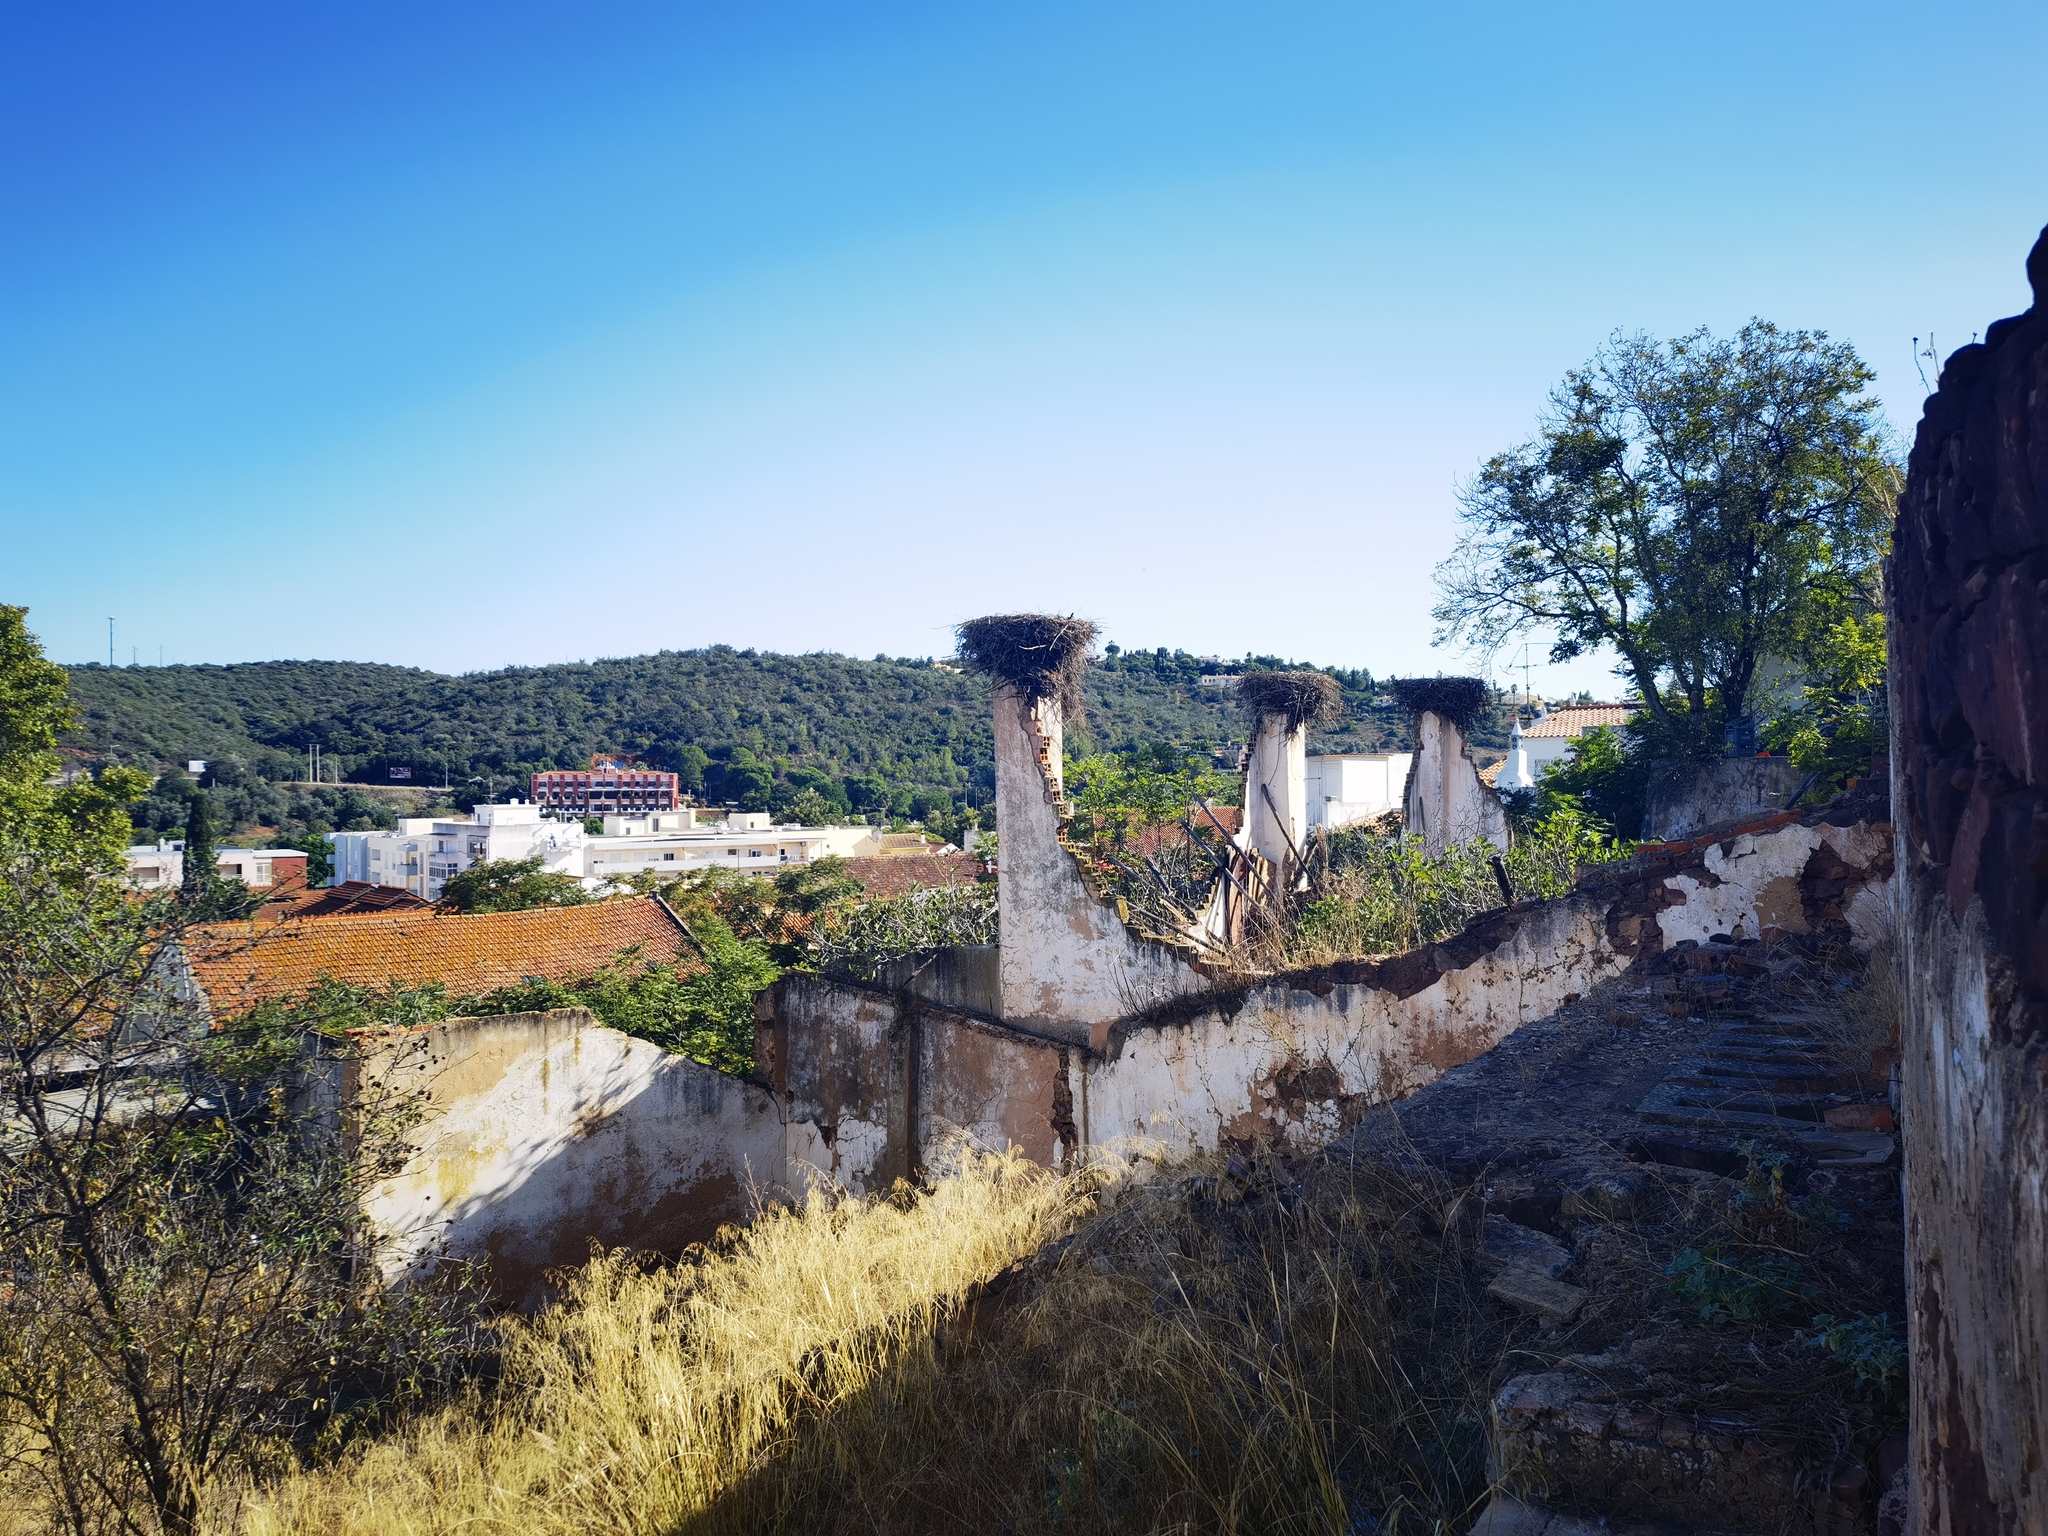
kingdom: Animalia
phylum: Chordata
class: Aves
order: Ciconiiformes
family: Ciconiidae
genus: Ciconia
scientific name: Ciconia ciconia
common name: White stork
